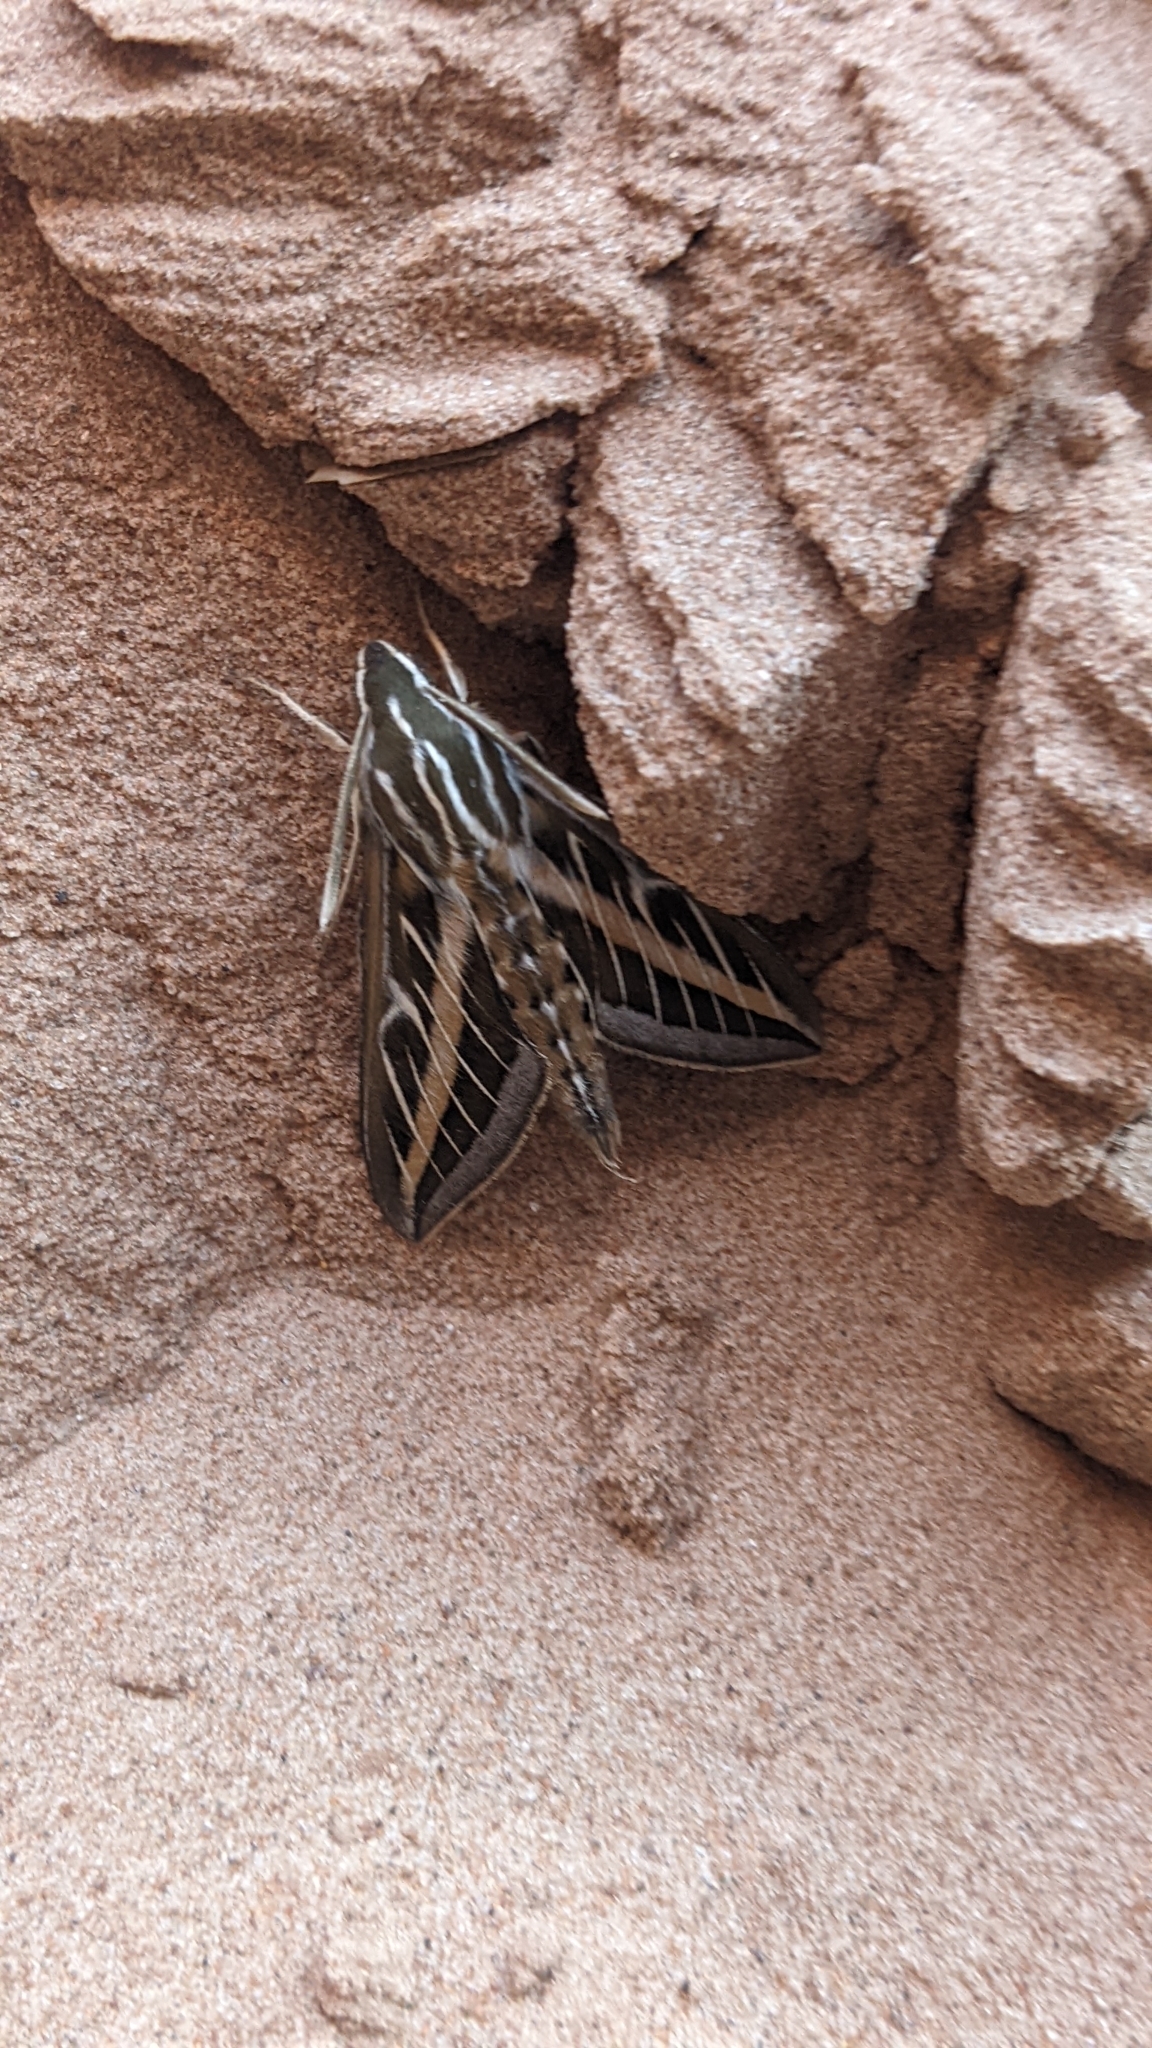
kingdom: Animalia
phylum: Arthropoda
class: Insecta
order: Lepidoptera
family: Sphingidae
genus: Hyles
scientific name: Hyles lineata
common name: White-lined sphinx
